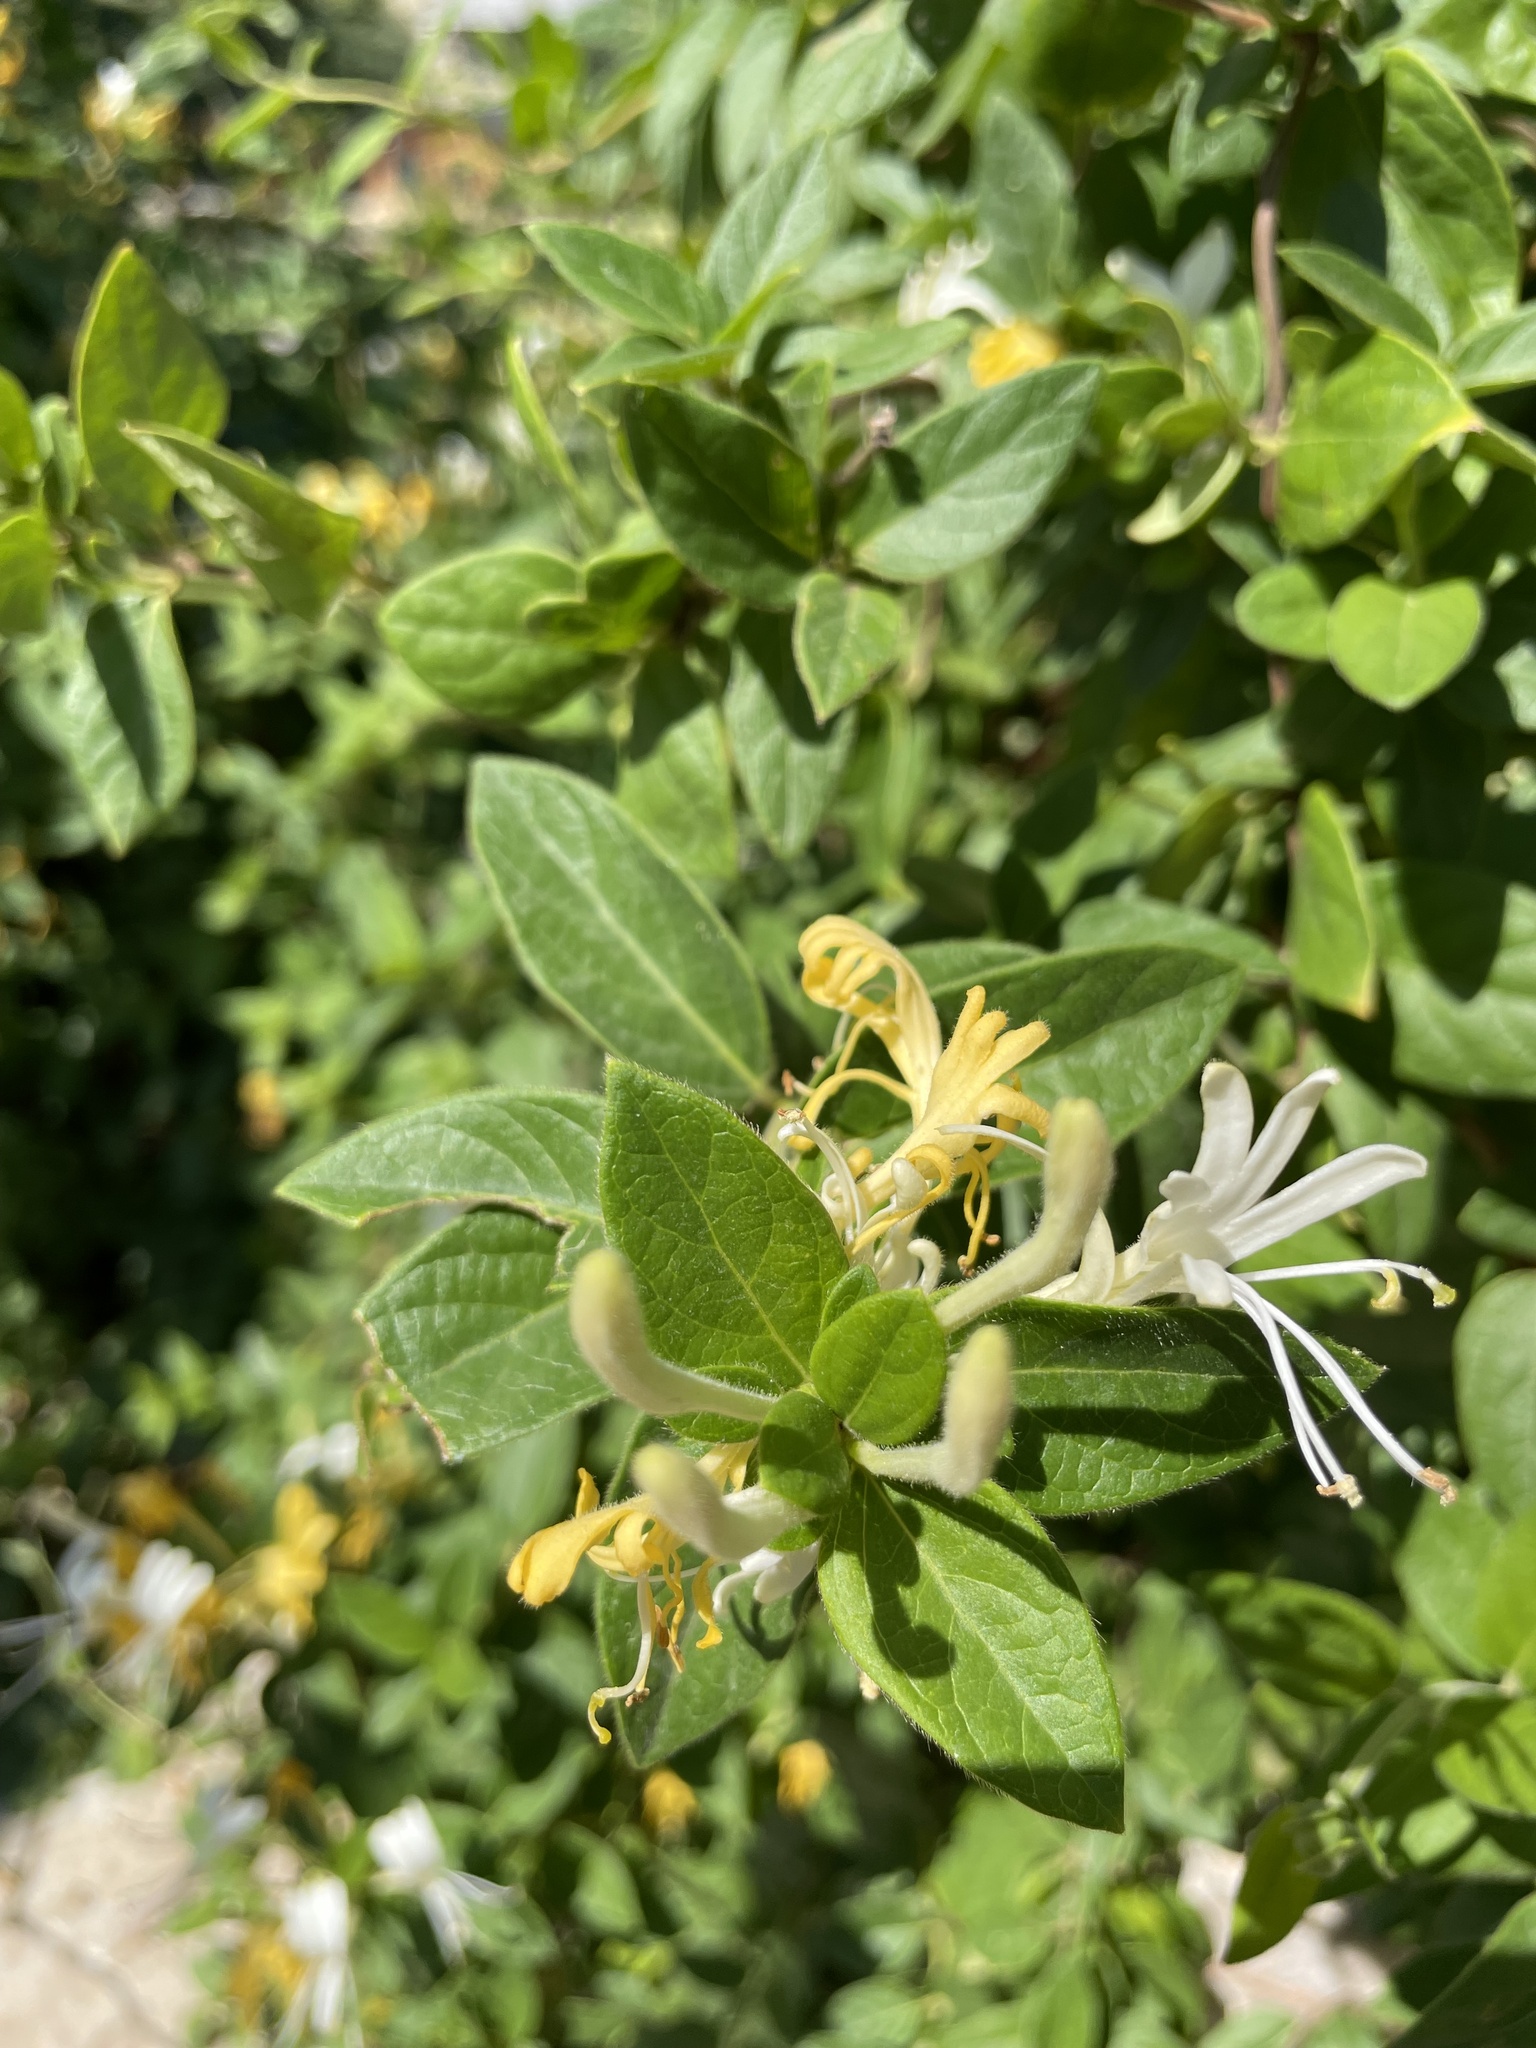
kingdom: Plantae
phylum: Tracheophyta
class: Magnoliopsida
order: Dipsacales
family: Caprifoliaceae
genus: Lonicera
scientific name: Lonicera japonica
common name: Japanese honeysuckle
